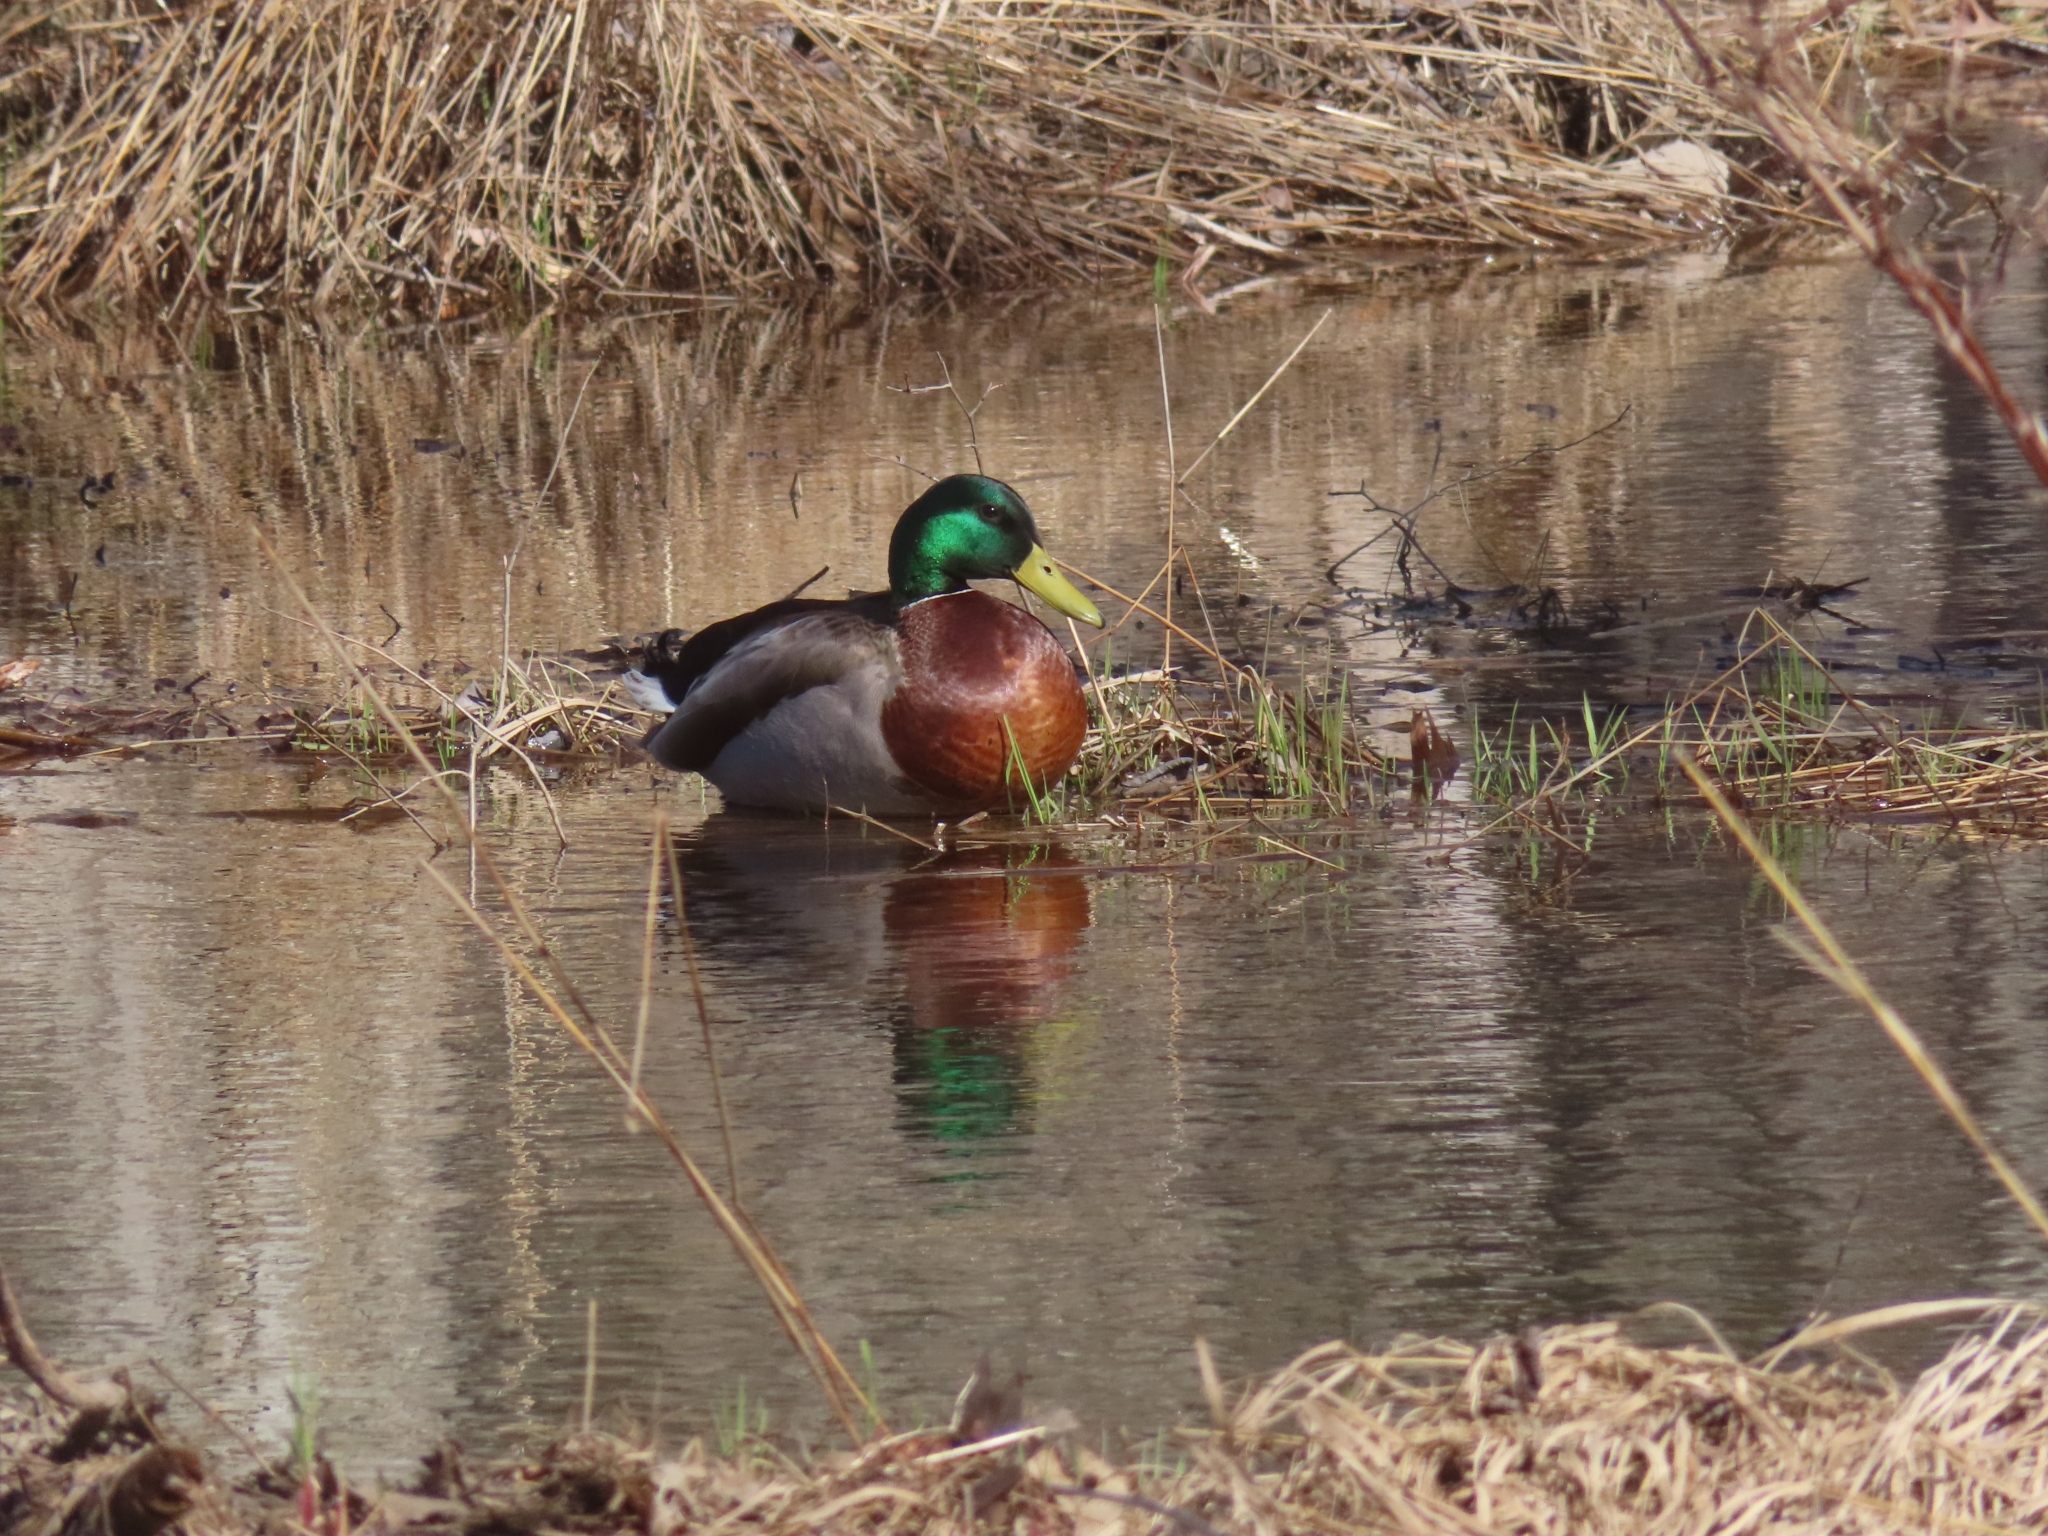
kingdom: Animalia
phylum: Chordata
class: Aves
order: Anseriformes
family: Anatidae
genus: Anas
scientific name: Anas platyrhynchos
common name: Mallard
